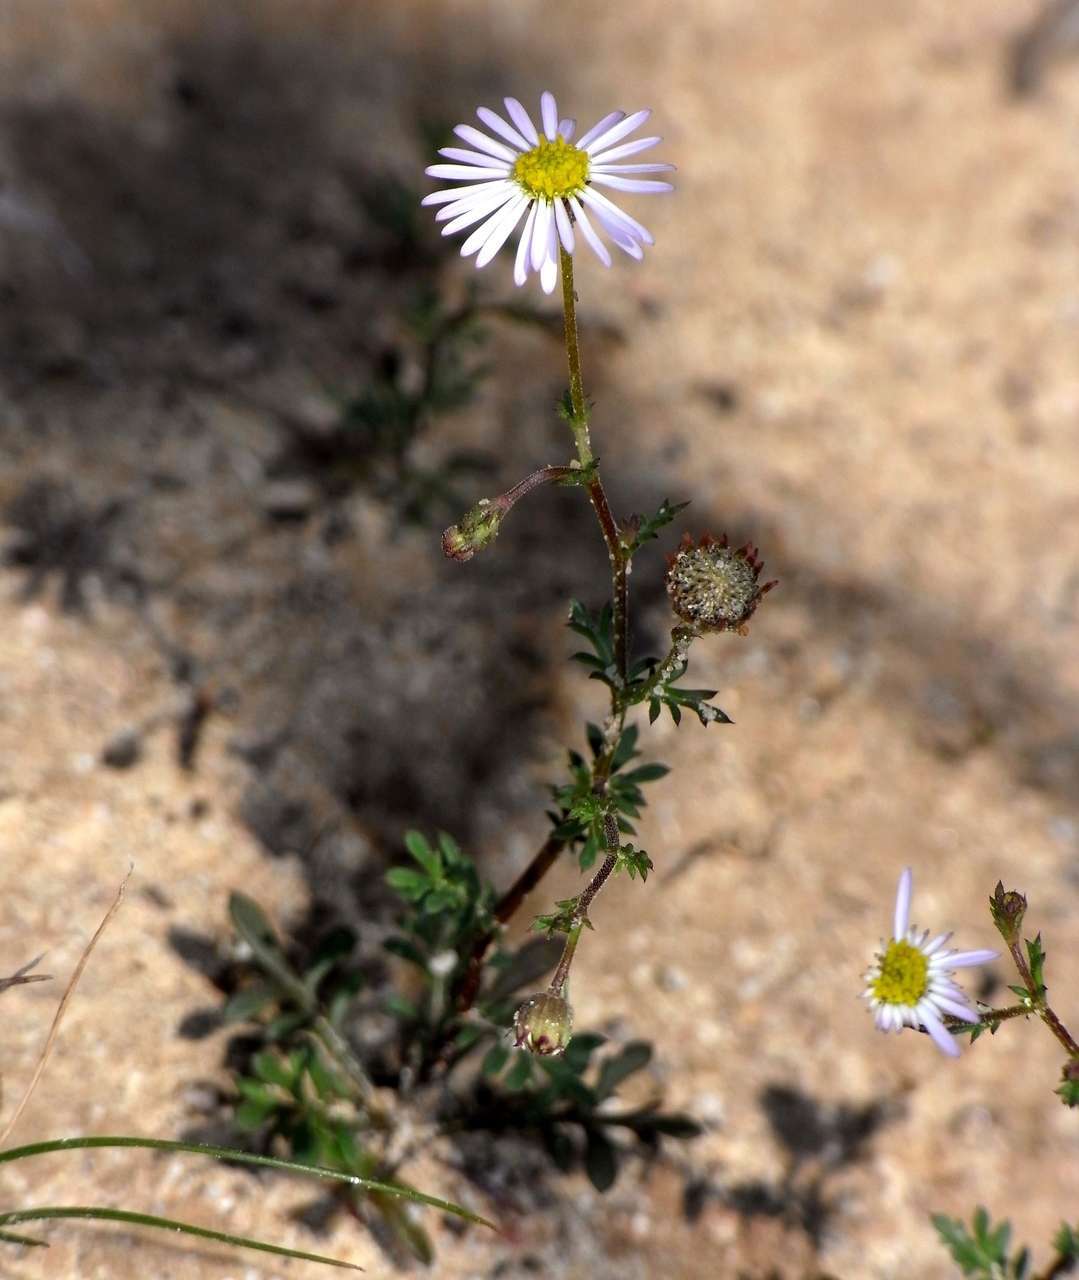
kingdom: Plantae
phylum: Tracheophyta
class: Magnoliopsida
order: Asterales
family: Asteraceae
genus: Brachyscome
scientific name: Brachyscome ciliaris
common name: Variable daisy
